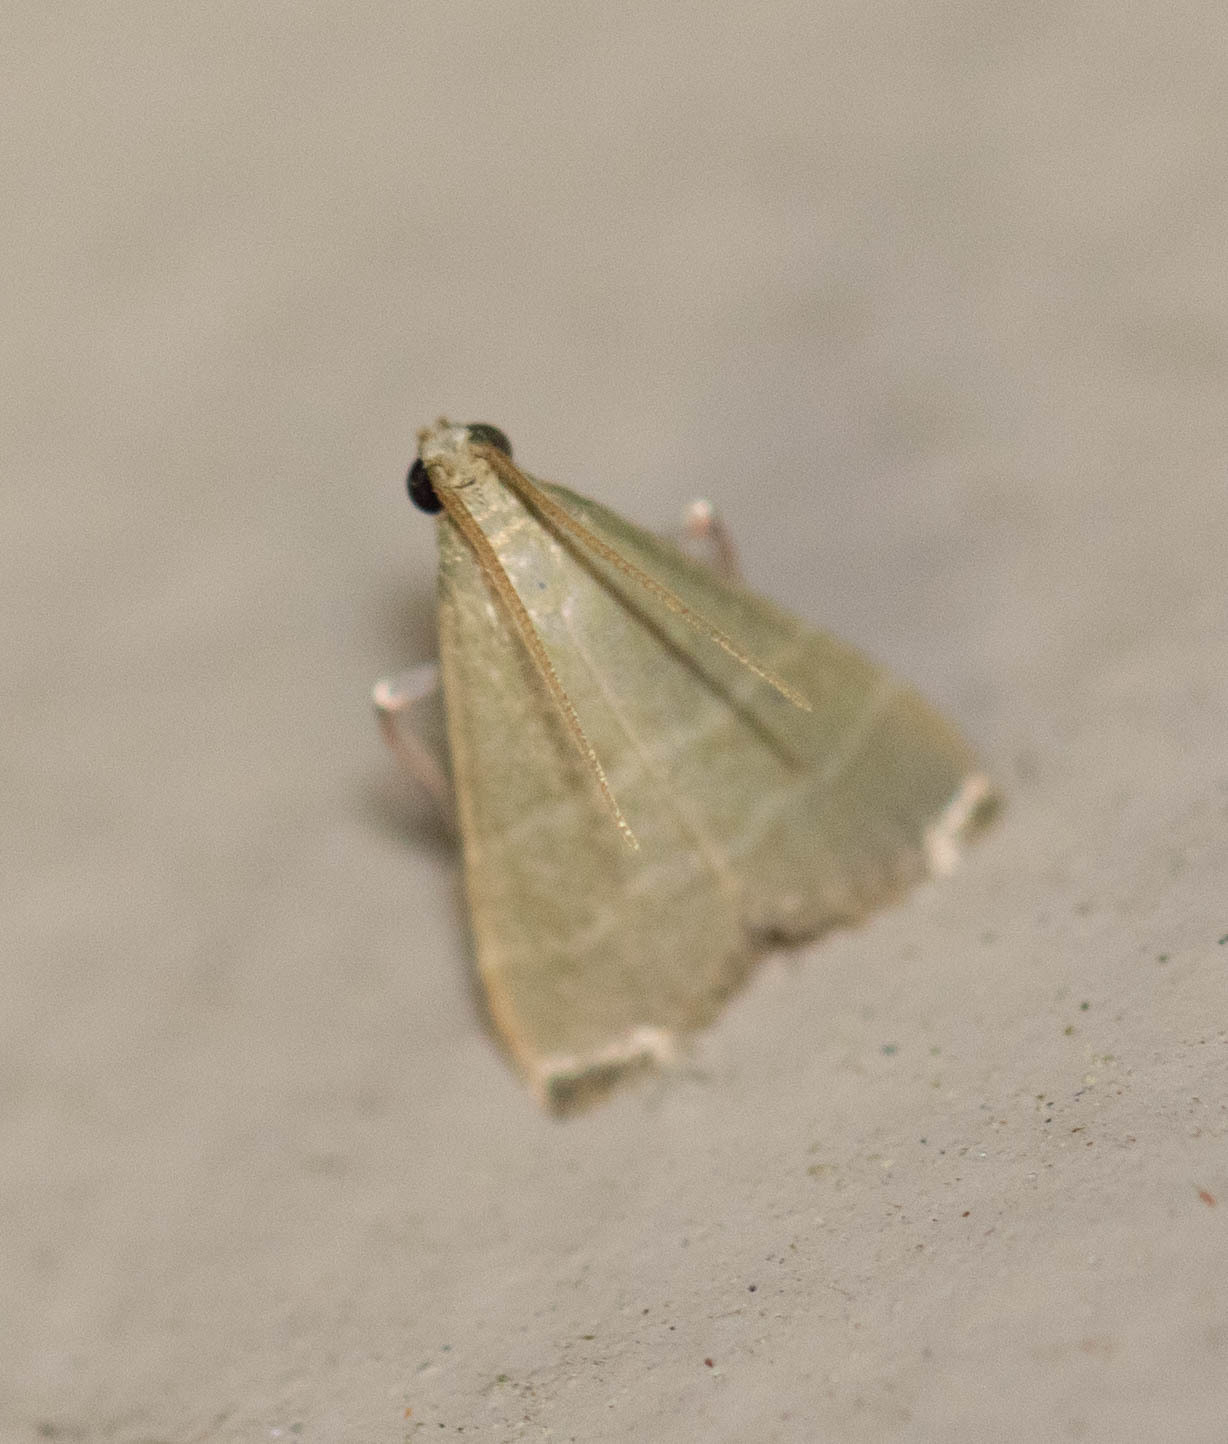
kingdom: Animalia
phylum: Arthropoda
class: Insecta
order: Lepidoptera
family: Pyralidae
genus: Arta
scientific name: Arta olivalis
